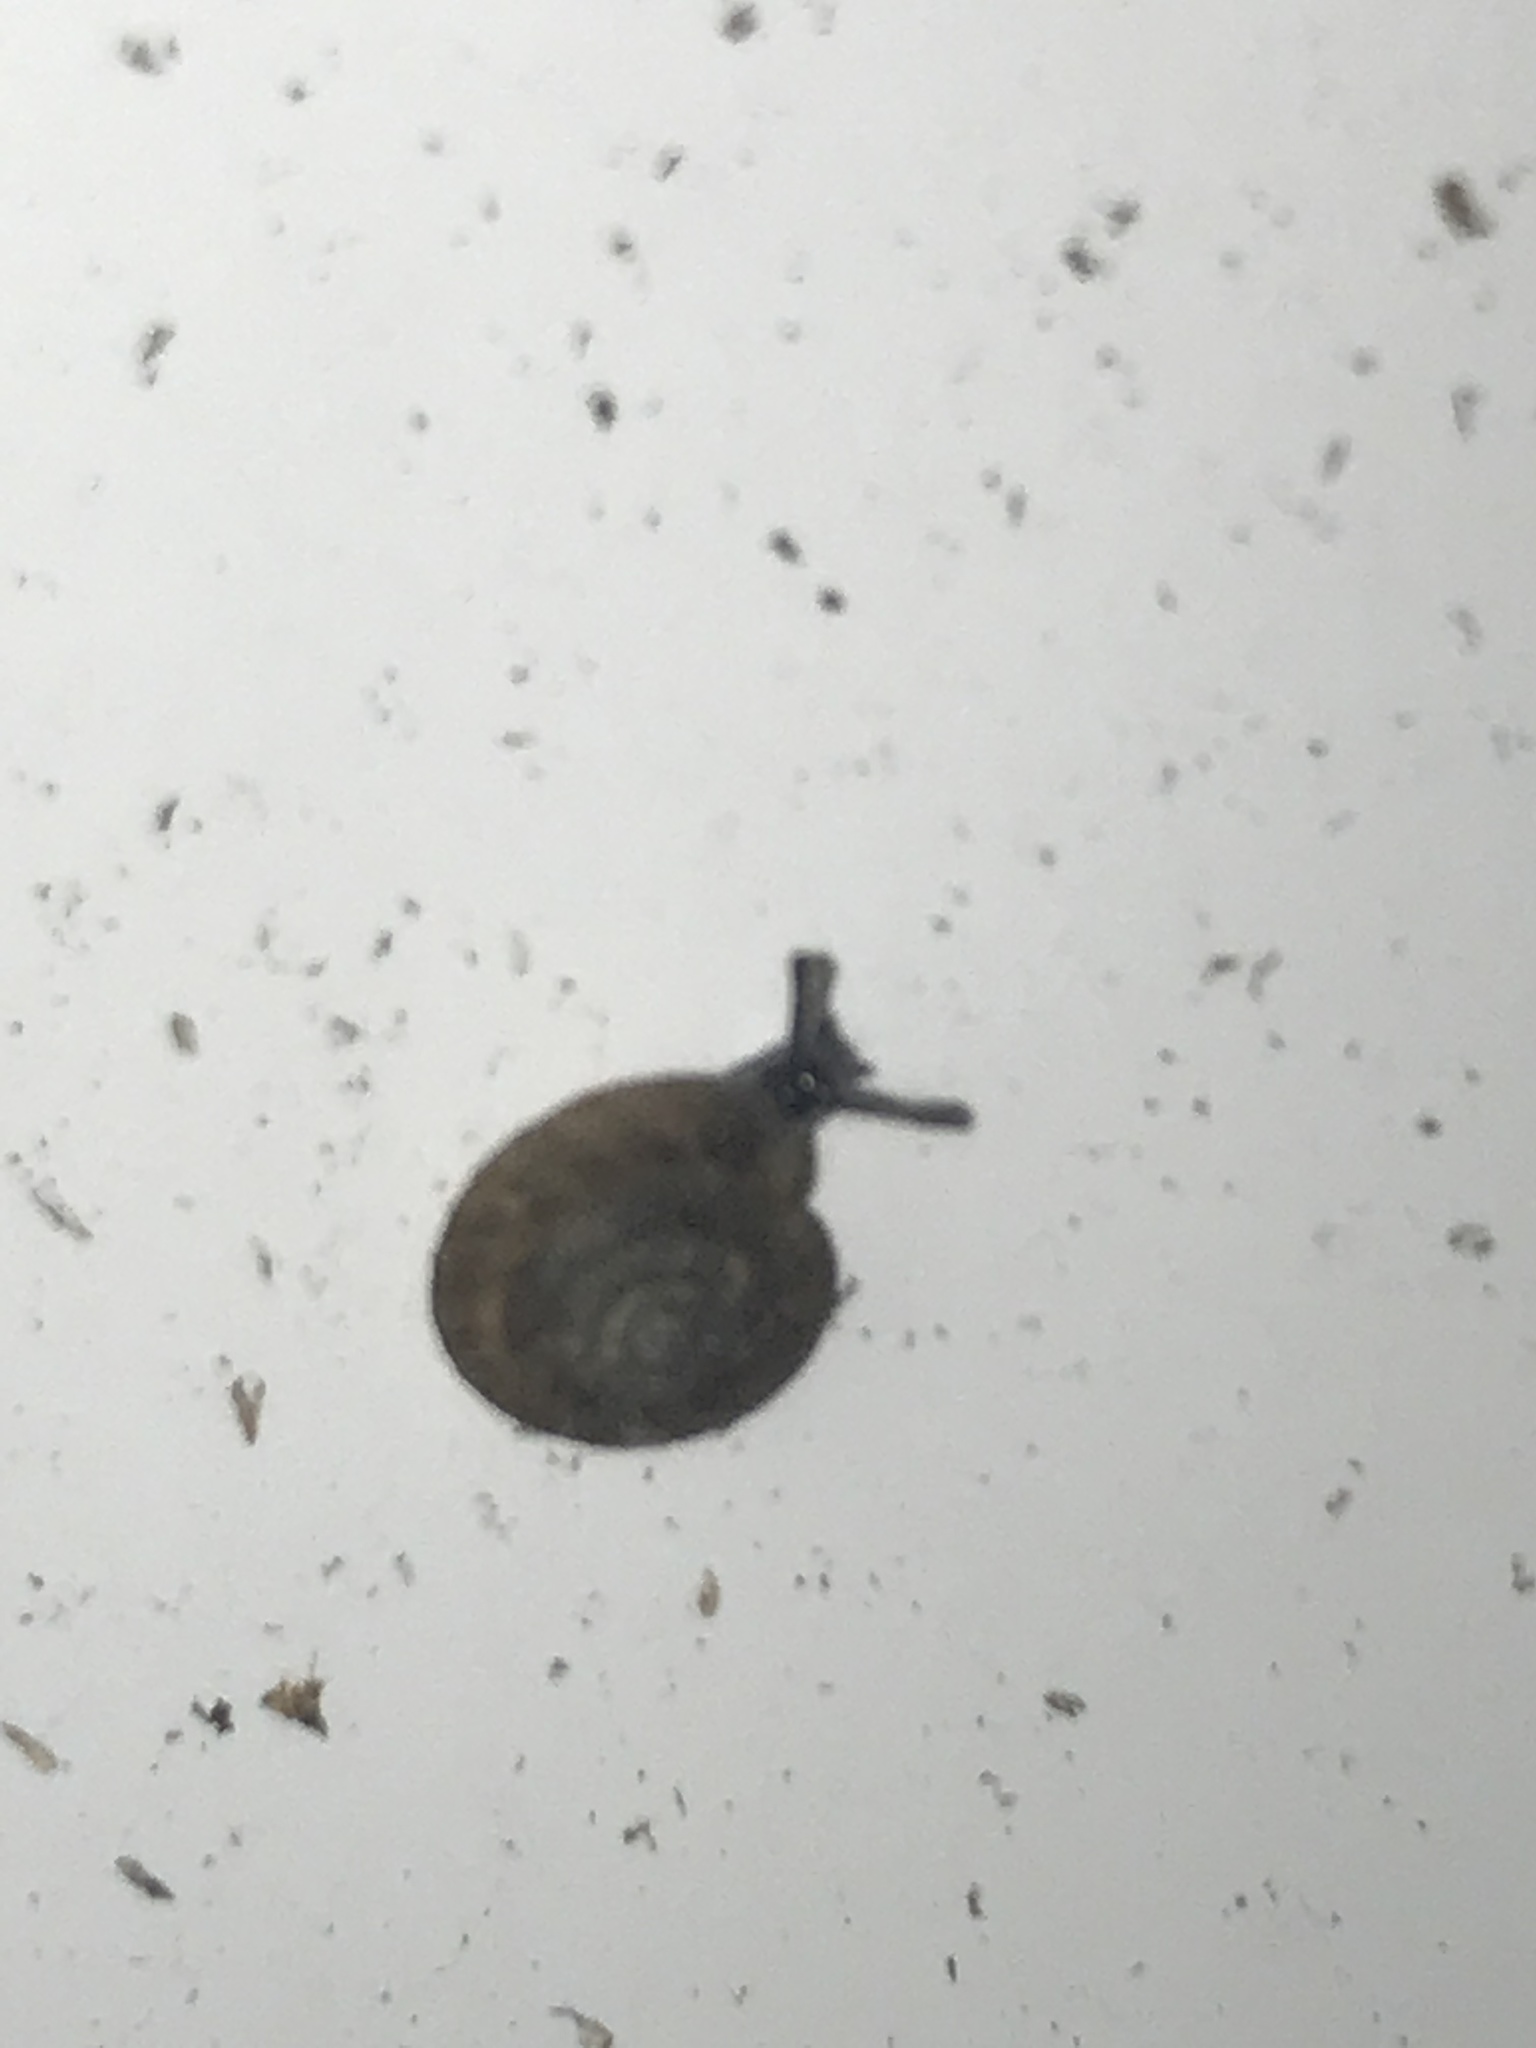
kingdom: Animalia
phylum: Mollusca
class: Gastropoda
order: Stylommatophora
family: Discidae
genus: Discus
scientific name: Discus rotundatus
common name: Rounded snail
